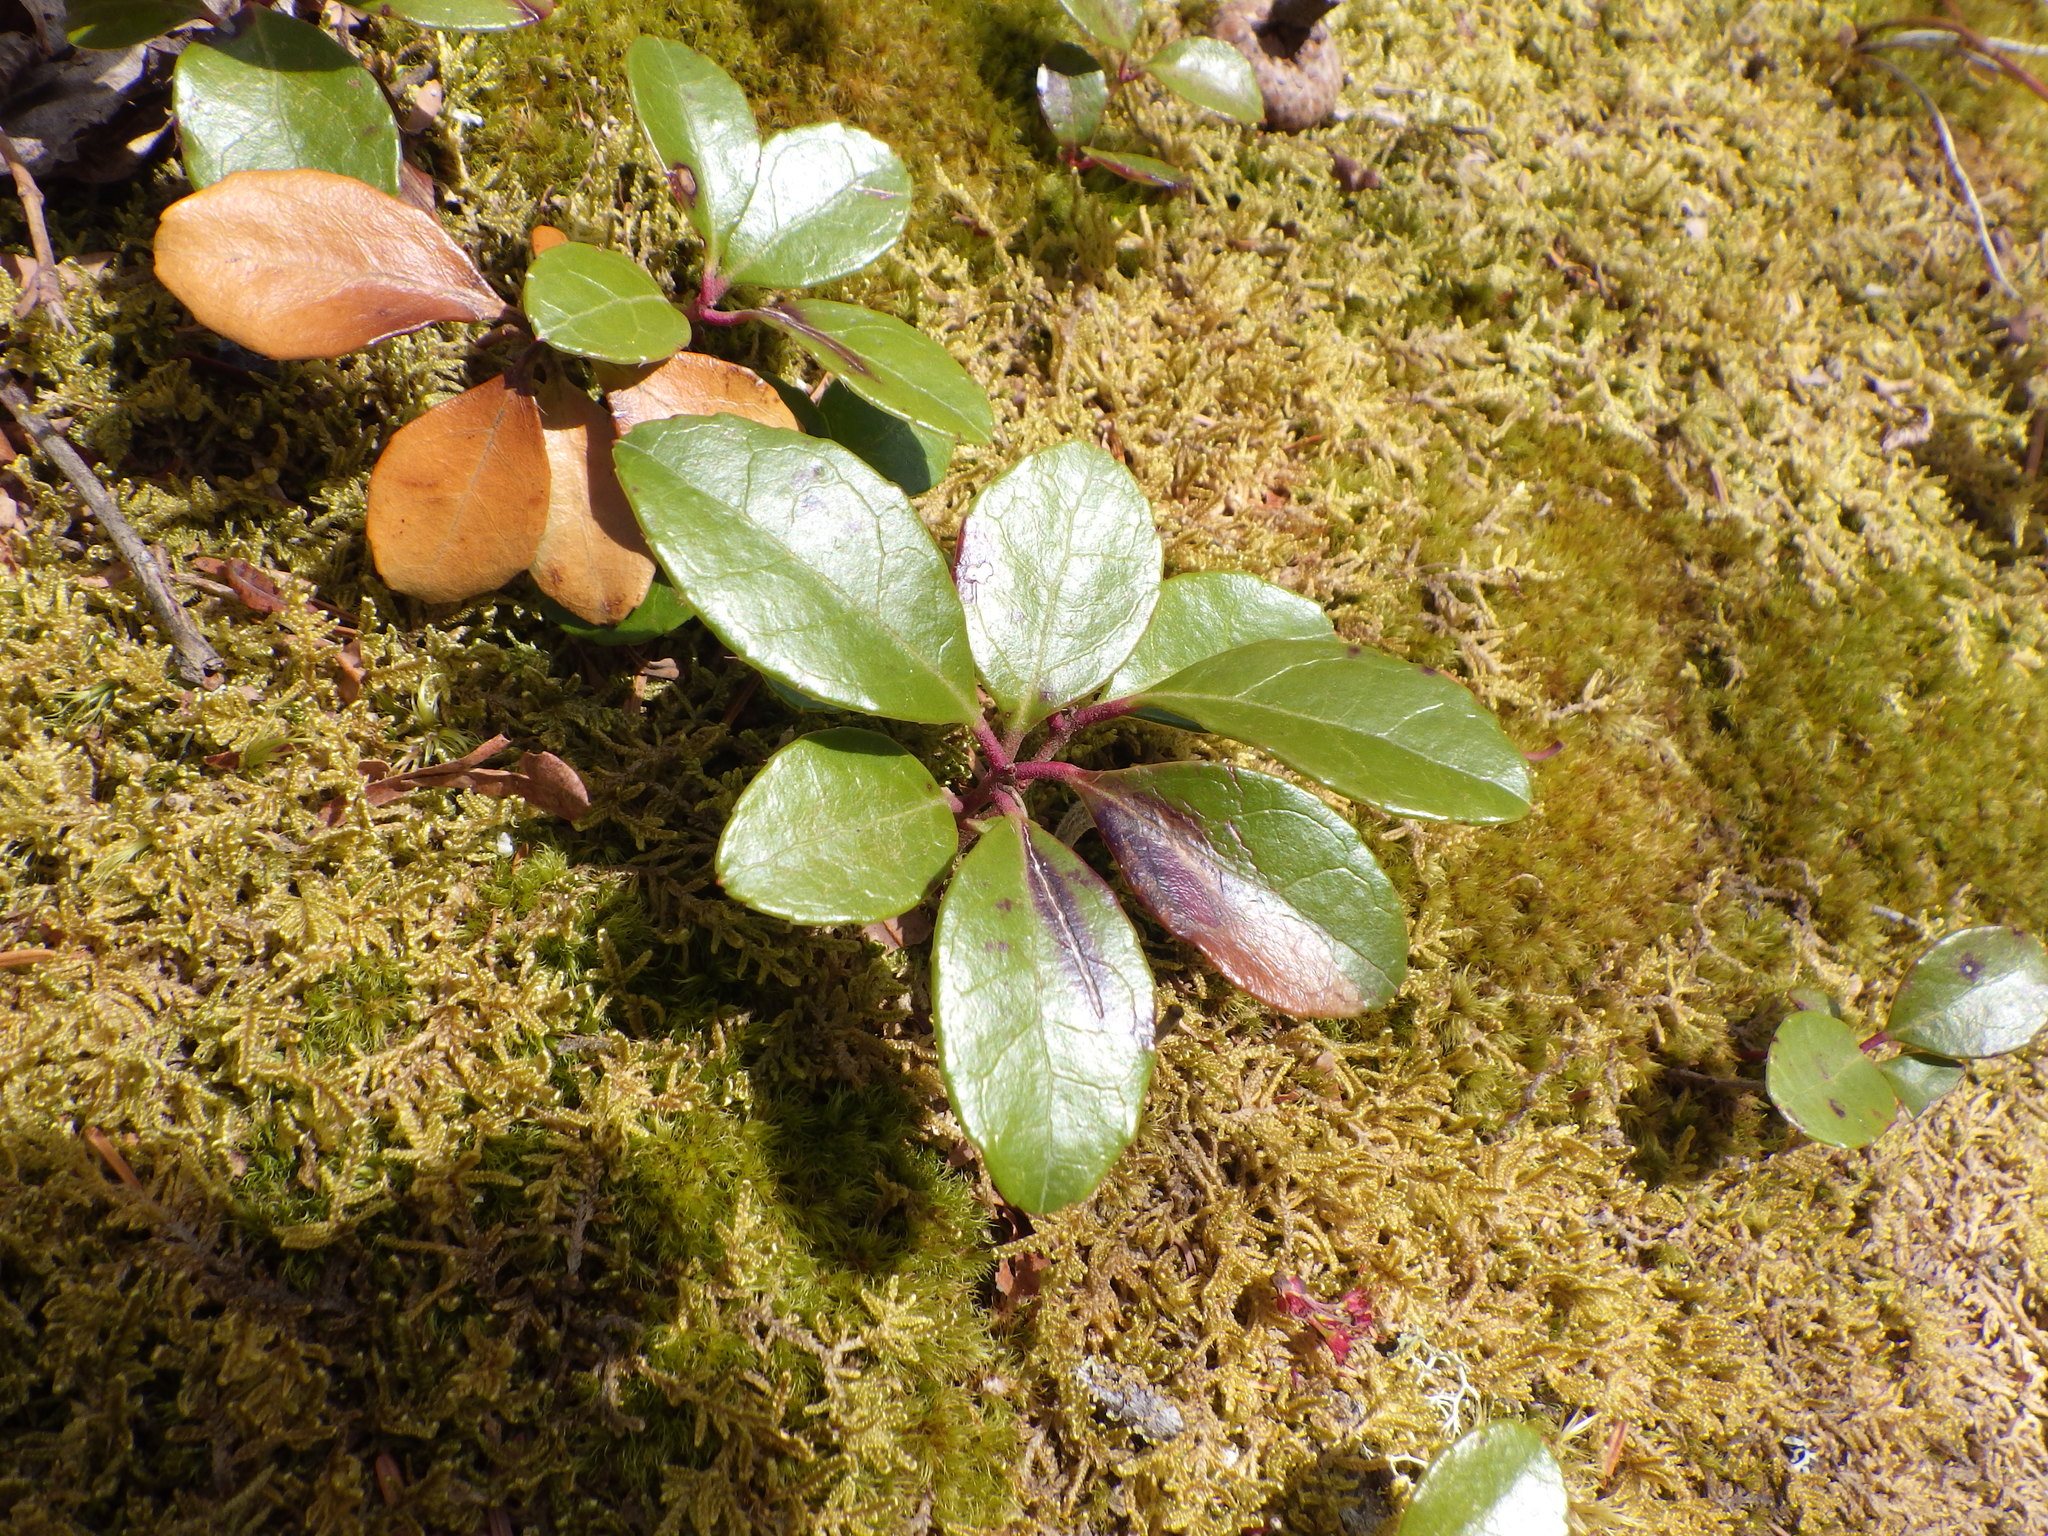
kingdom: Plantae
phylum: Tracheophyta
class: Magnoliopsida
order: Ericales
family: Ericaceae
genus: Gaultheria
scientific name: Gaultheria procumbens
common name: Checkerberry
